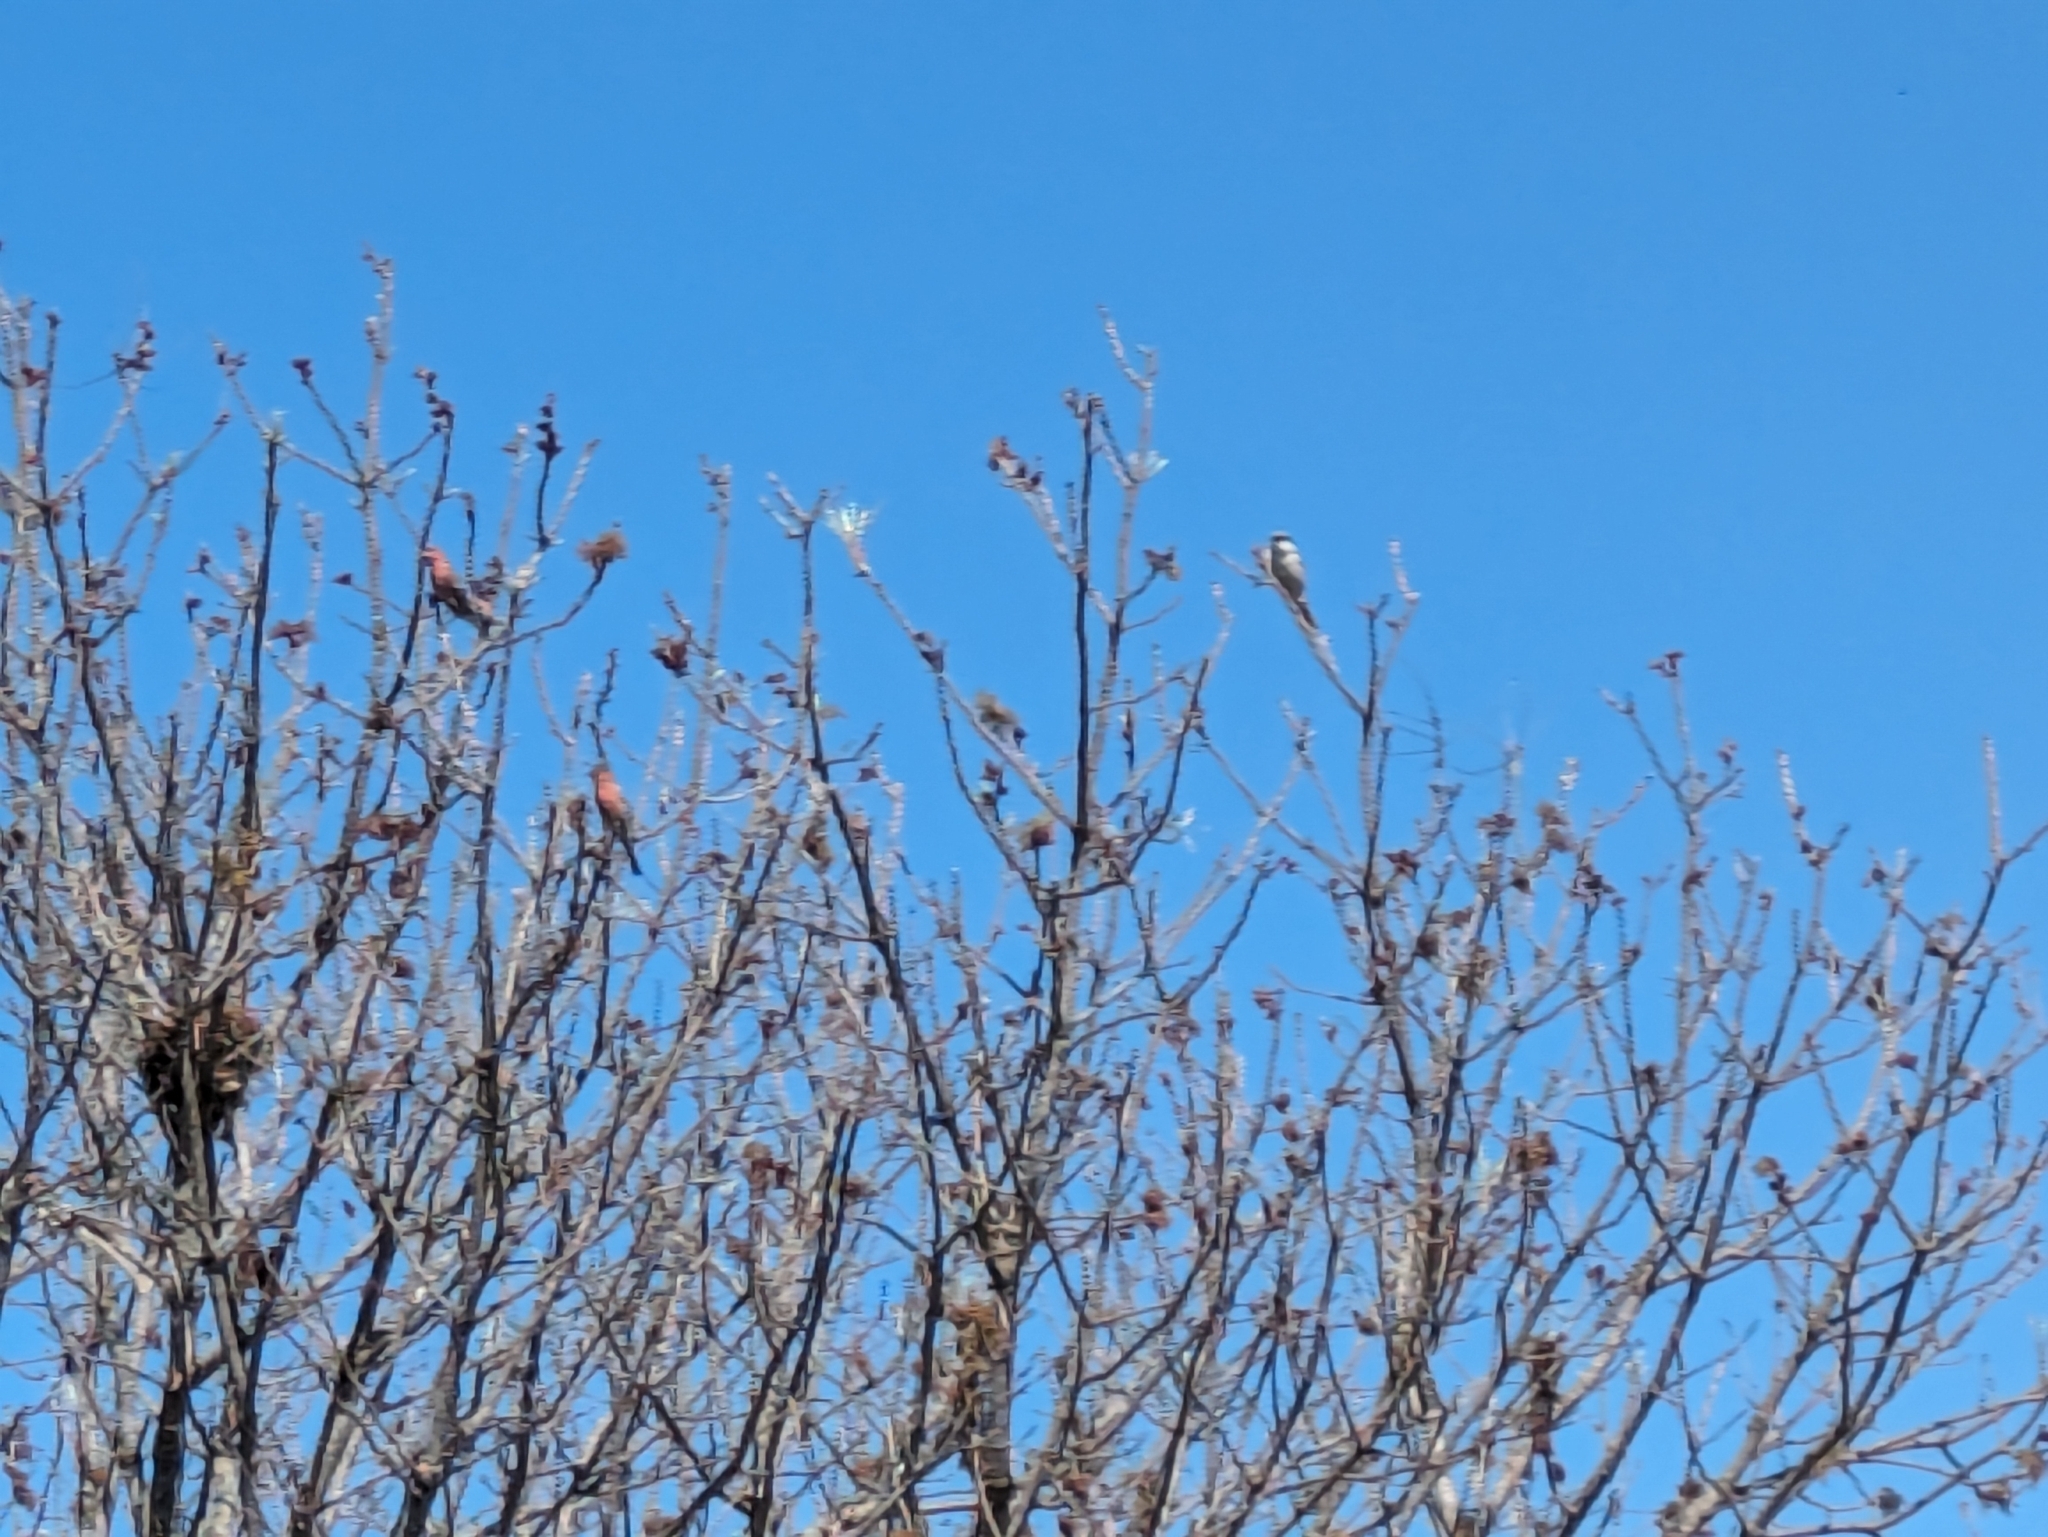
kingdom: Animalia
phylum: Chordata
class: Aves
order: Passeriformes
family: Laniidae
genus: Lanius
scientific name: Lanius ludovicianus
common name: Loggerhead shrike
